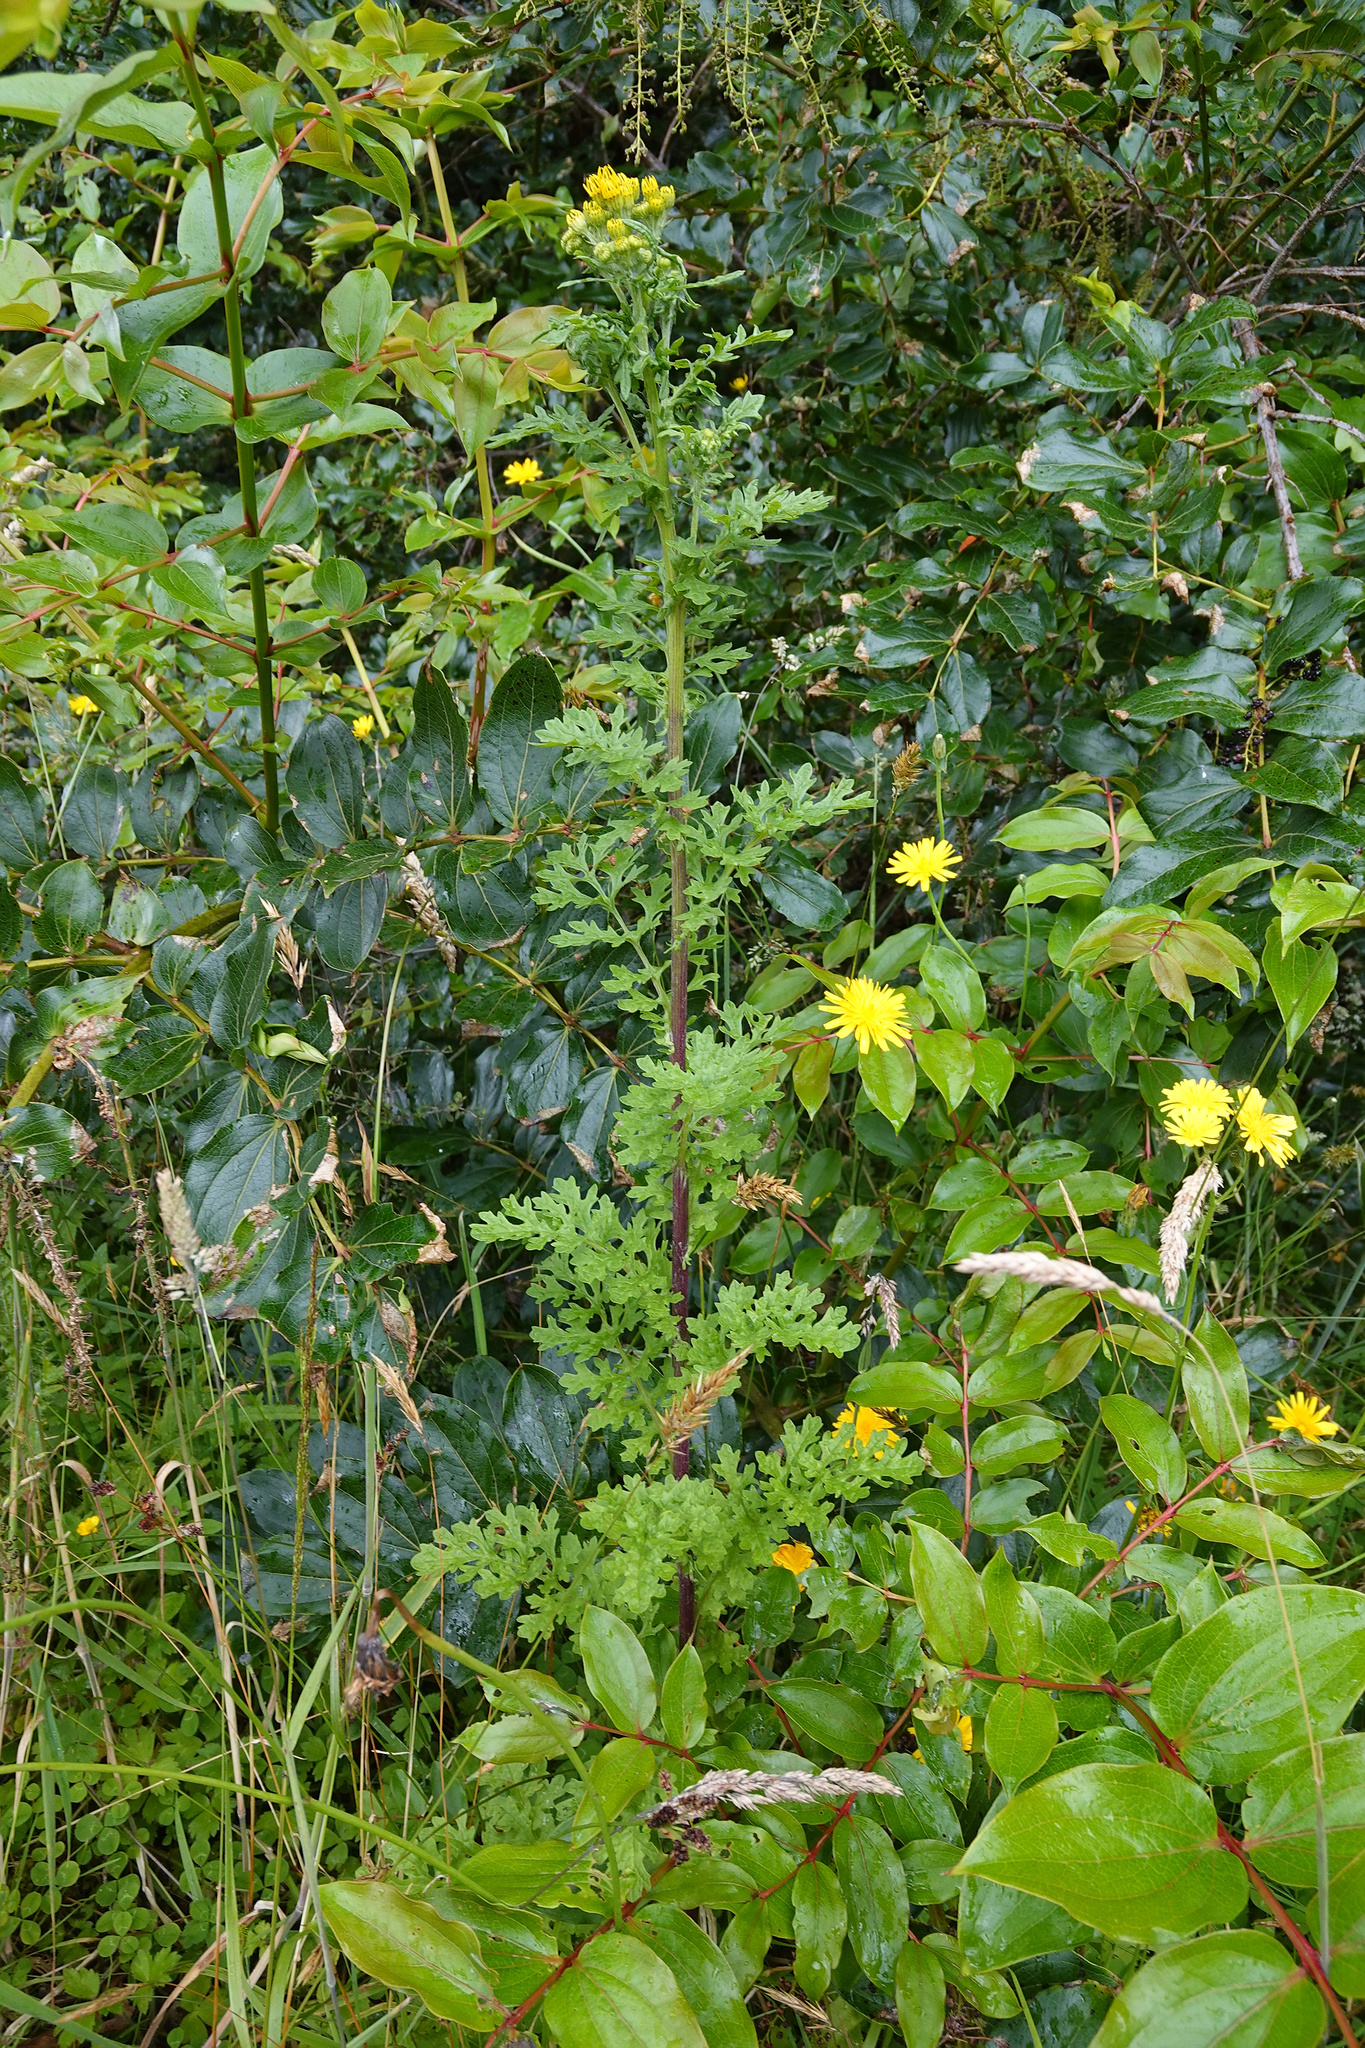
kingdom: Plantae
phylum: Tracheophyta
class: Magnoliopsida
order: Asterales
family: Asteraceae
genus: Jacobaea
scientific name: Jacobaea vulgaris
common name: Stinking willie
